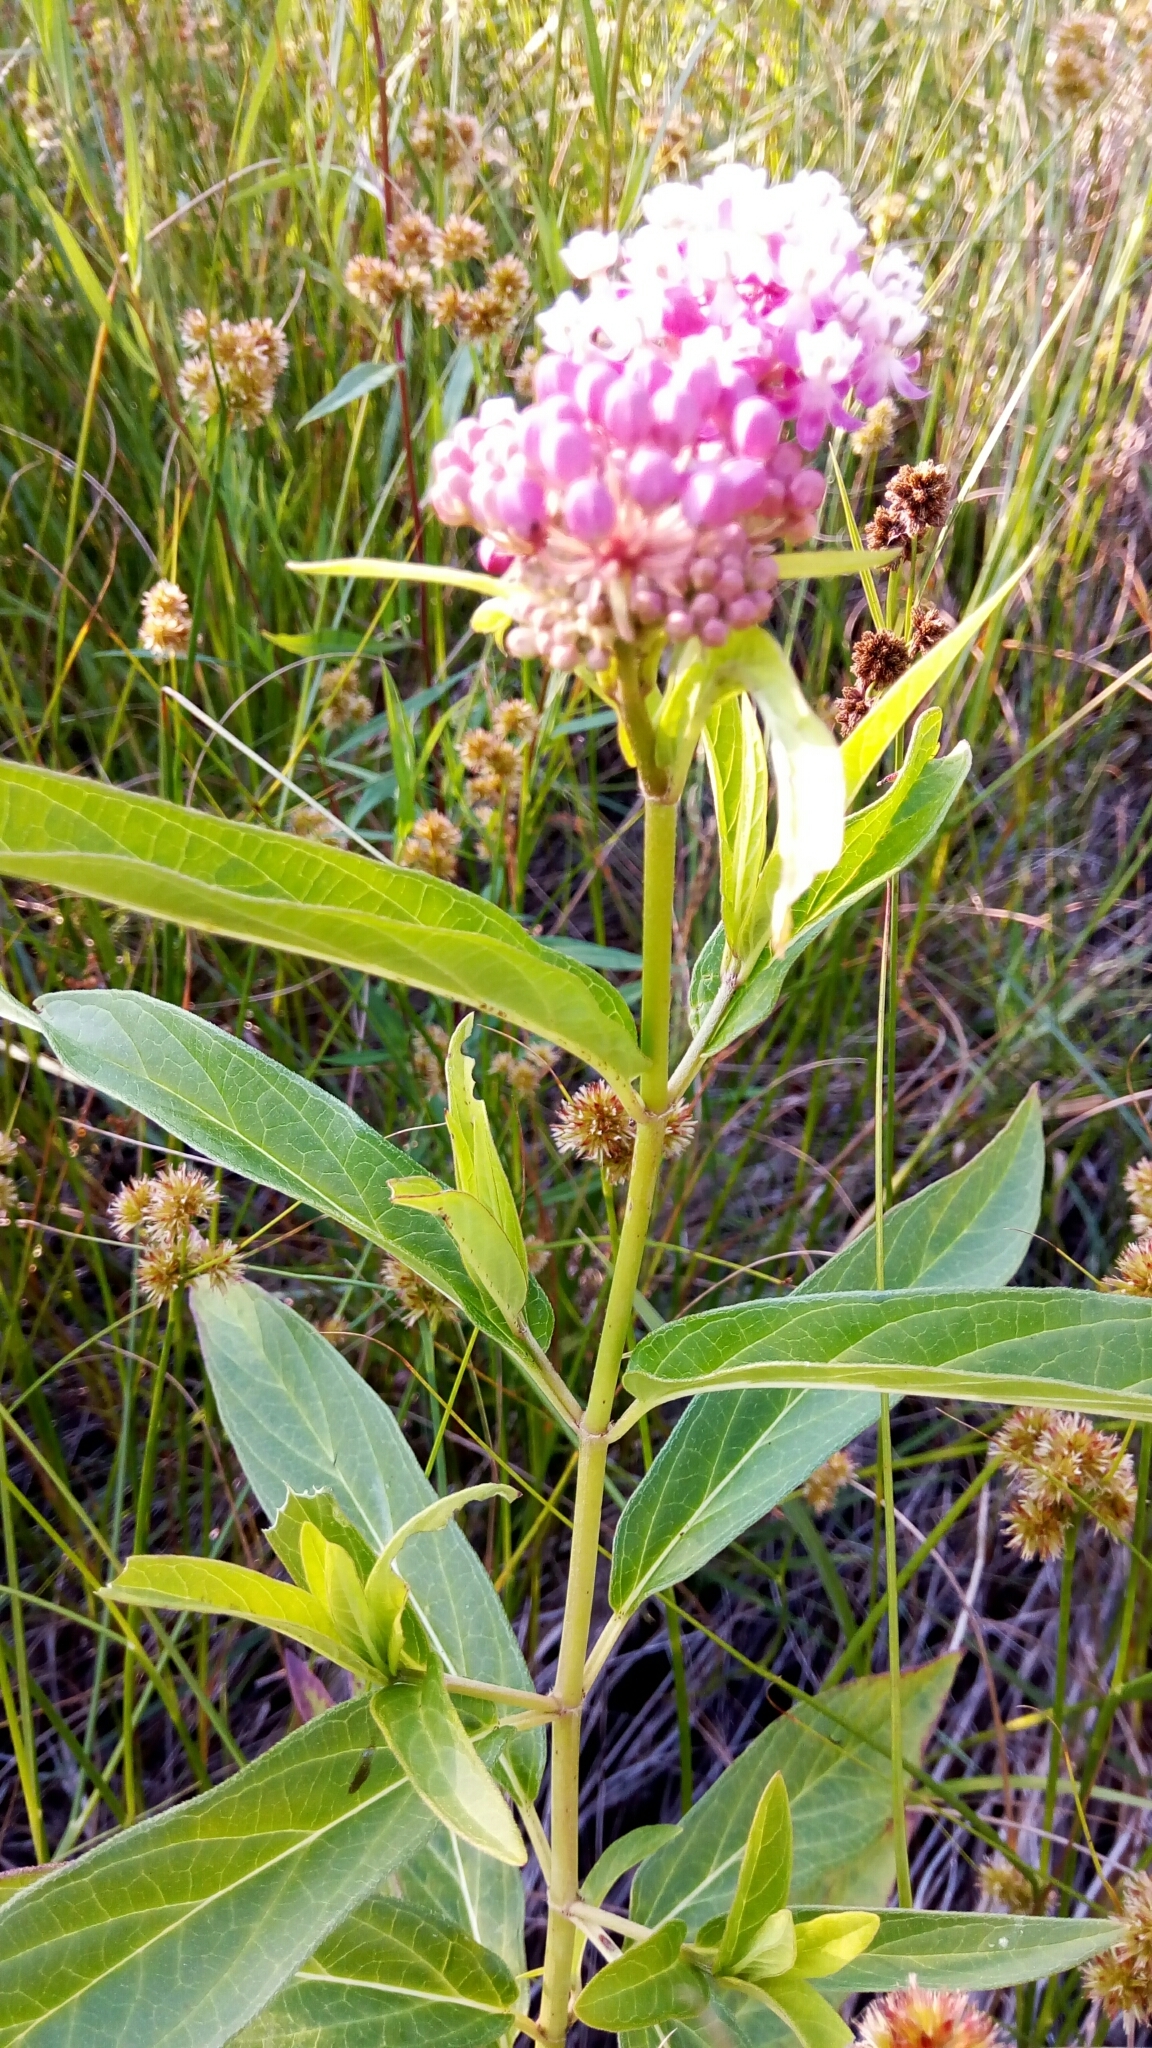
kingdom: Plantae
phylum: Tracheophyta
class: Magnoliopsida
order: Gentianales
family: Apocynaceae
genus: Asclepias
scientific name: Asclepias incarnata
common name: Swamp milkweed
